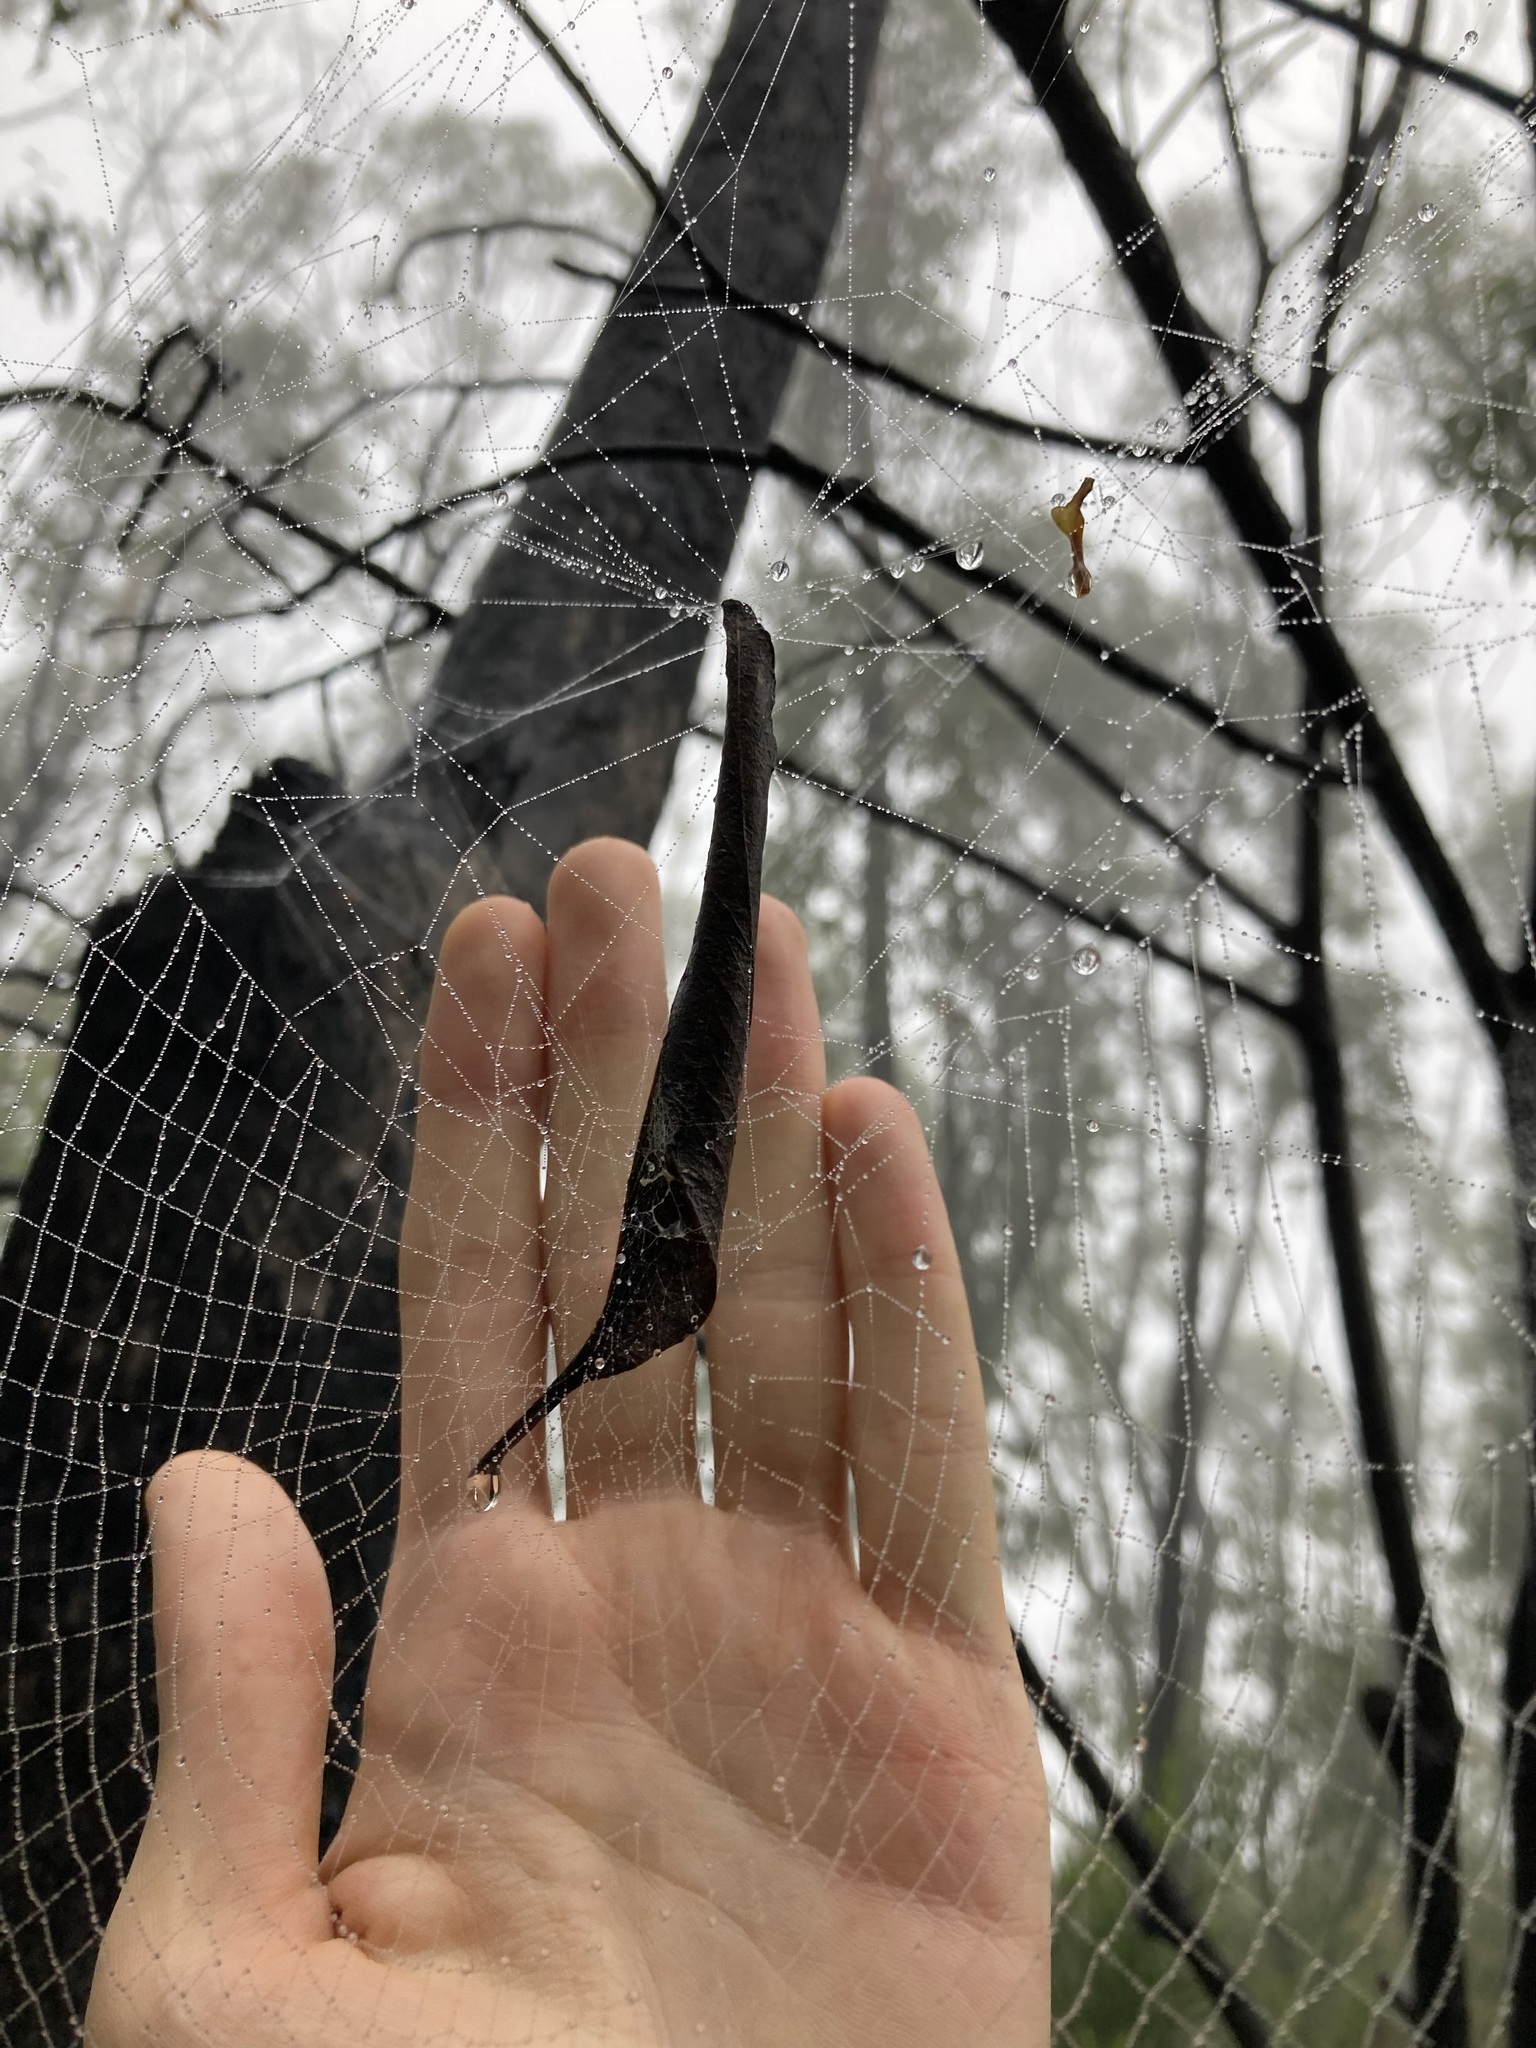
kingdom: Animalia
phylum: Arthropoda
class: Arachnida
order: Araneae
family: Araneidae
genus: Phonognatha
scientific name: Phonognatha graeffei
